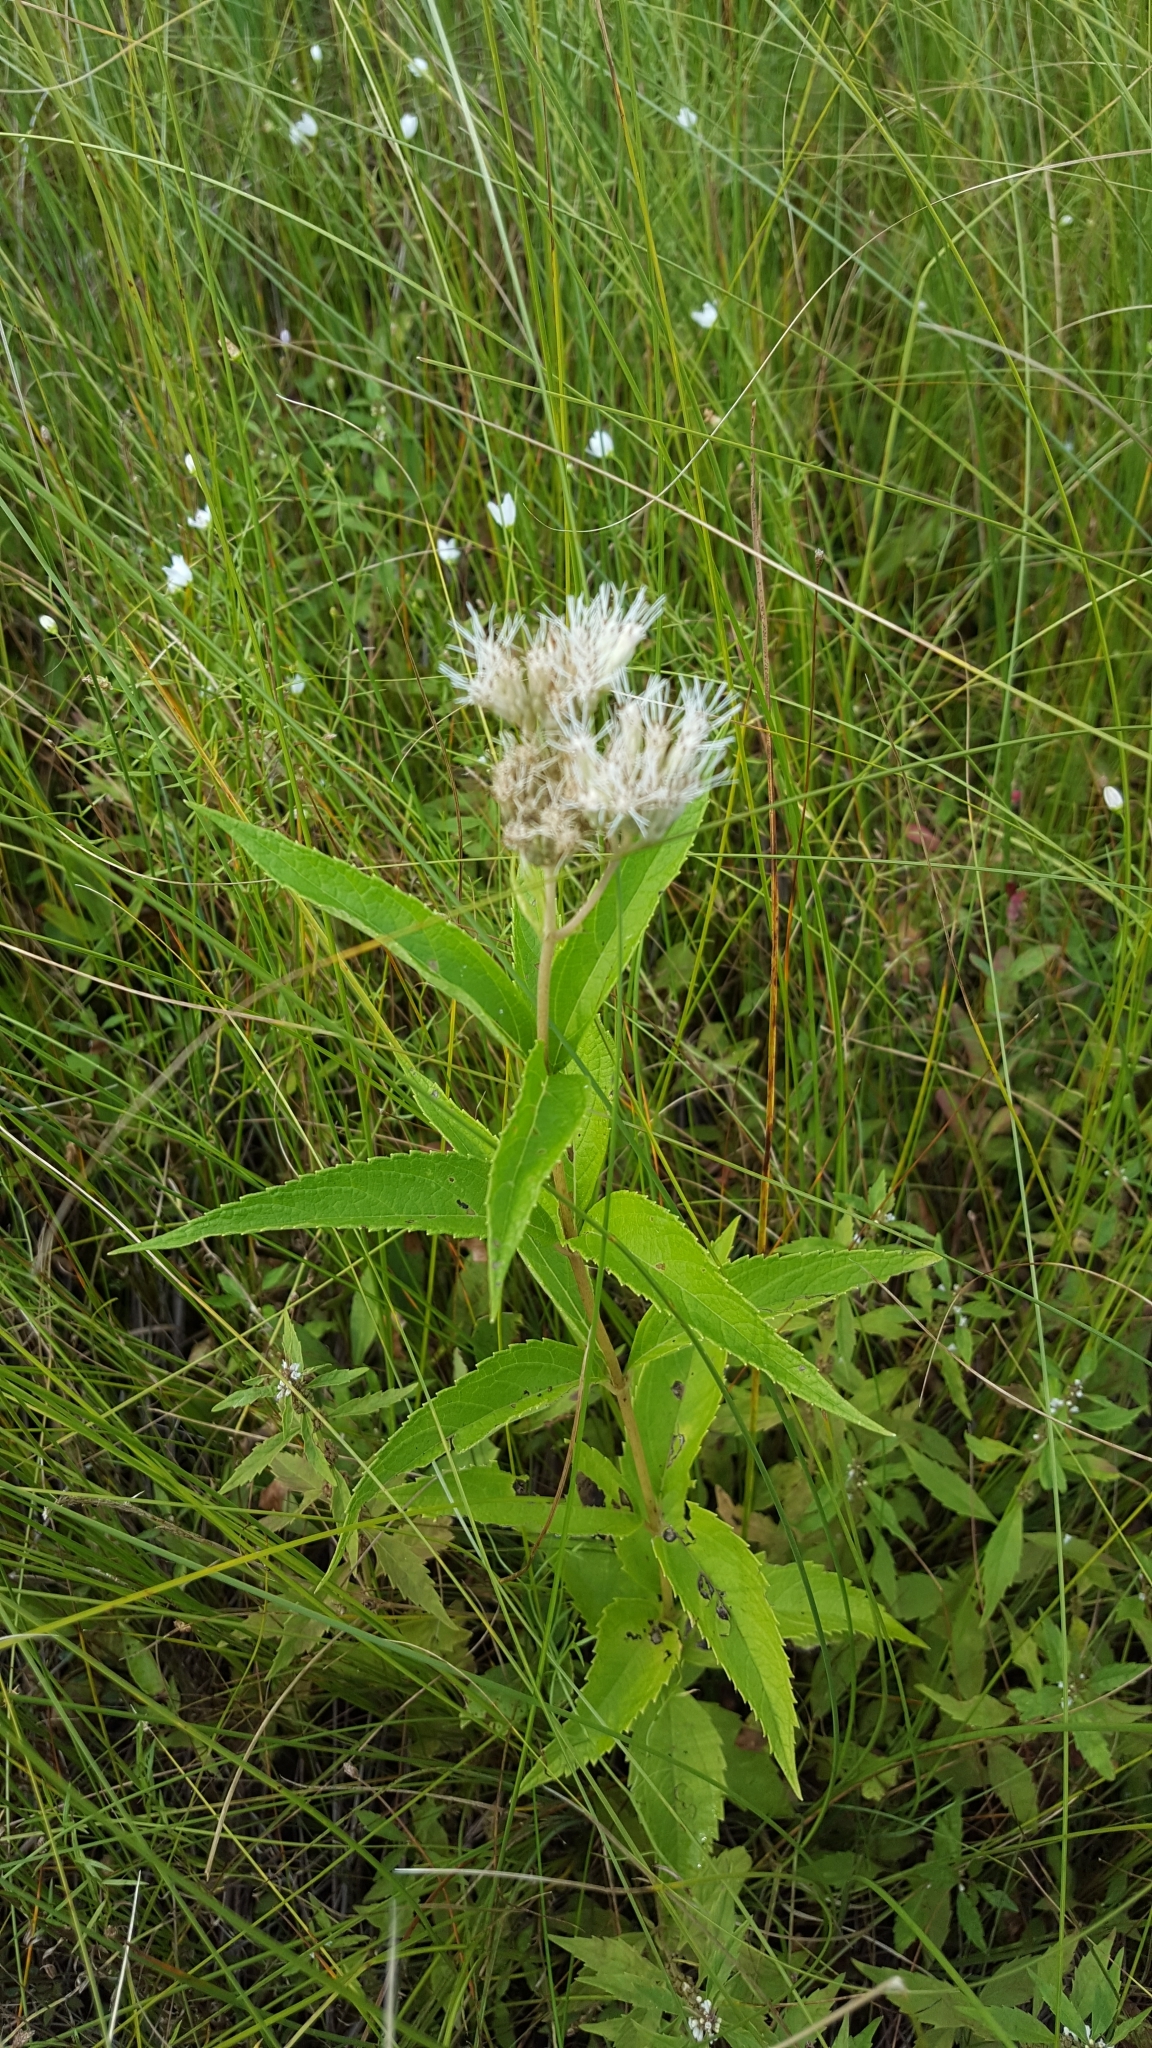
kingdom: Plantae
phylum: Tracheophyta
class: Magnoliopsida
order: Asterales
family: Asteraceae
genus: Eutrochium
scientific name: Eutrochium maculatum
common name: Spotted joe pye weed
